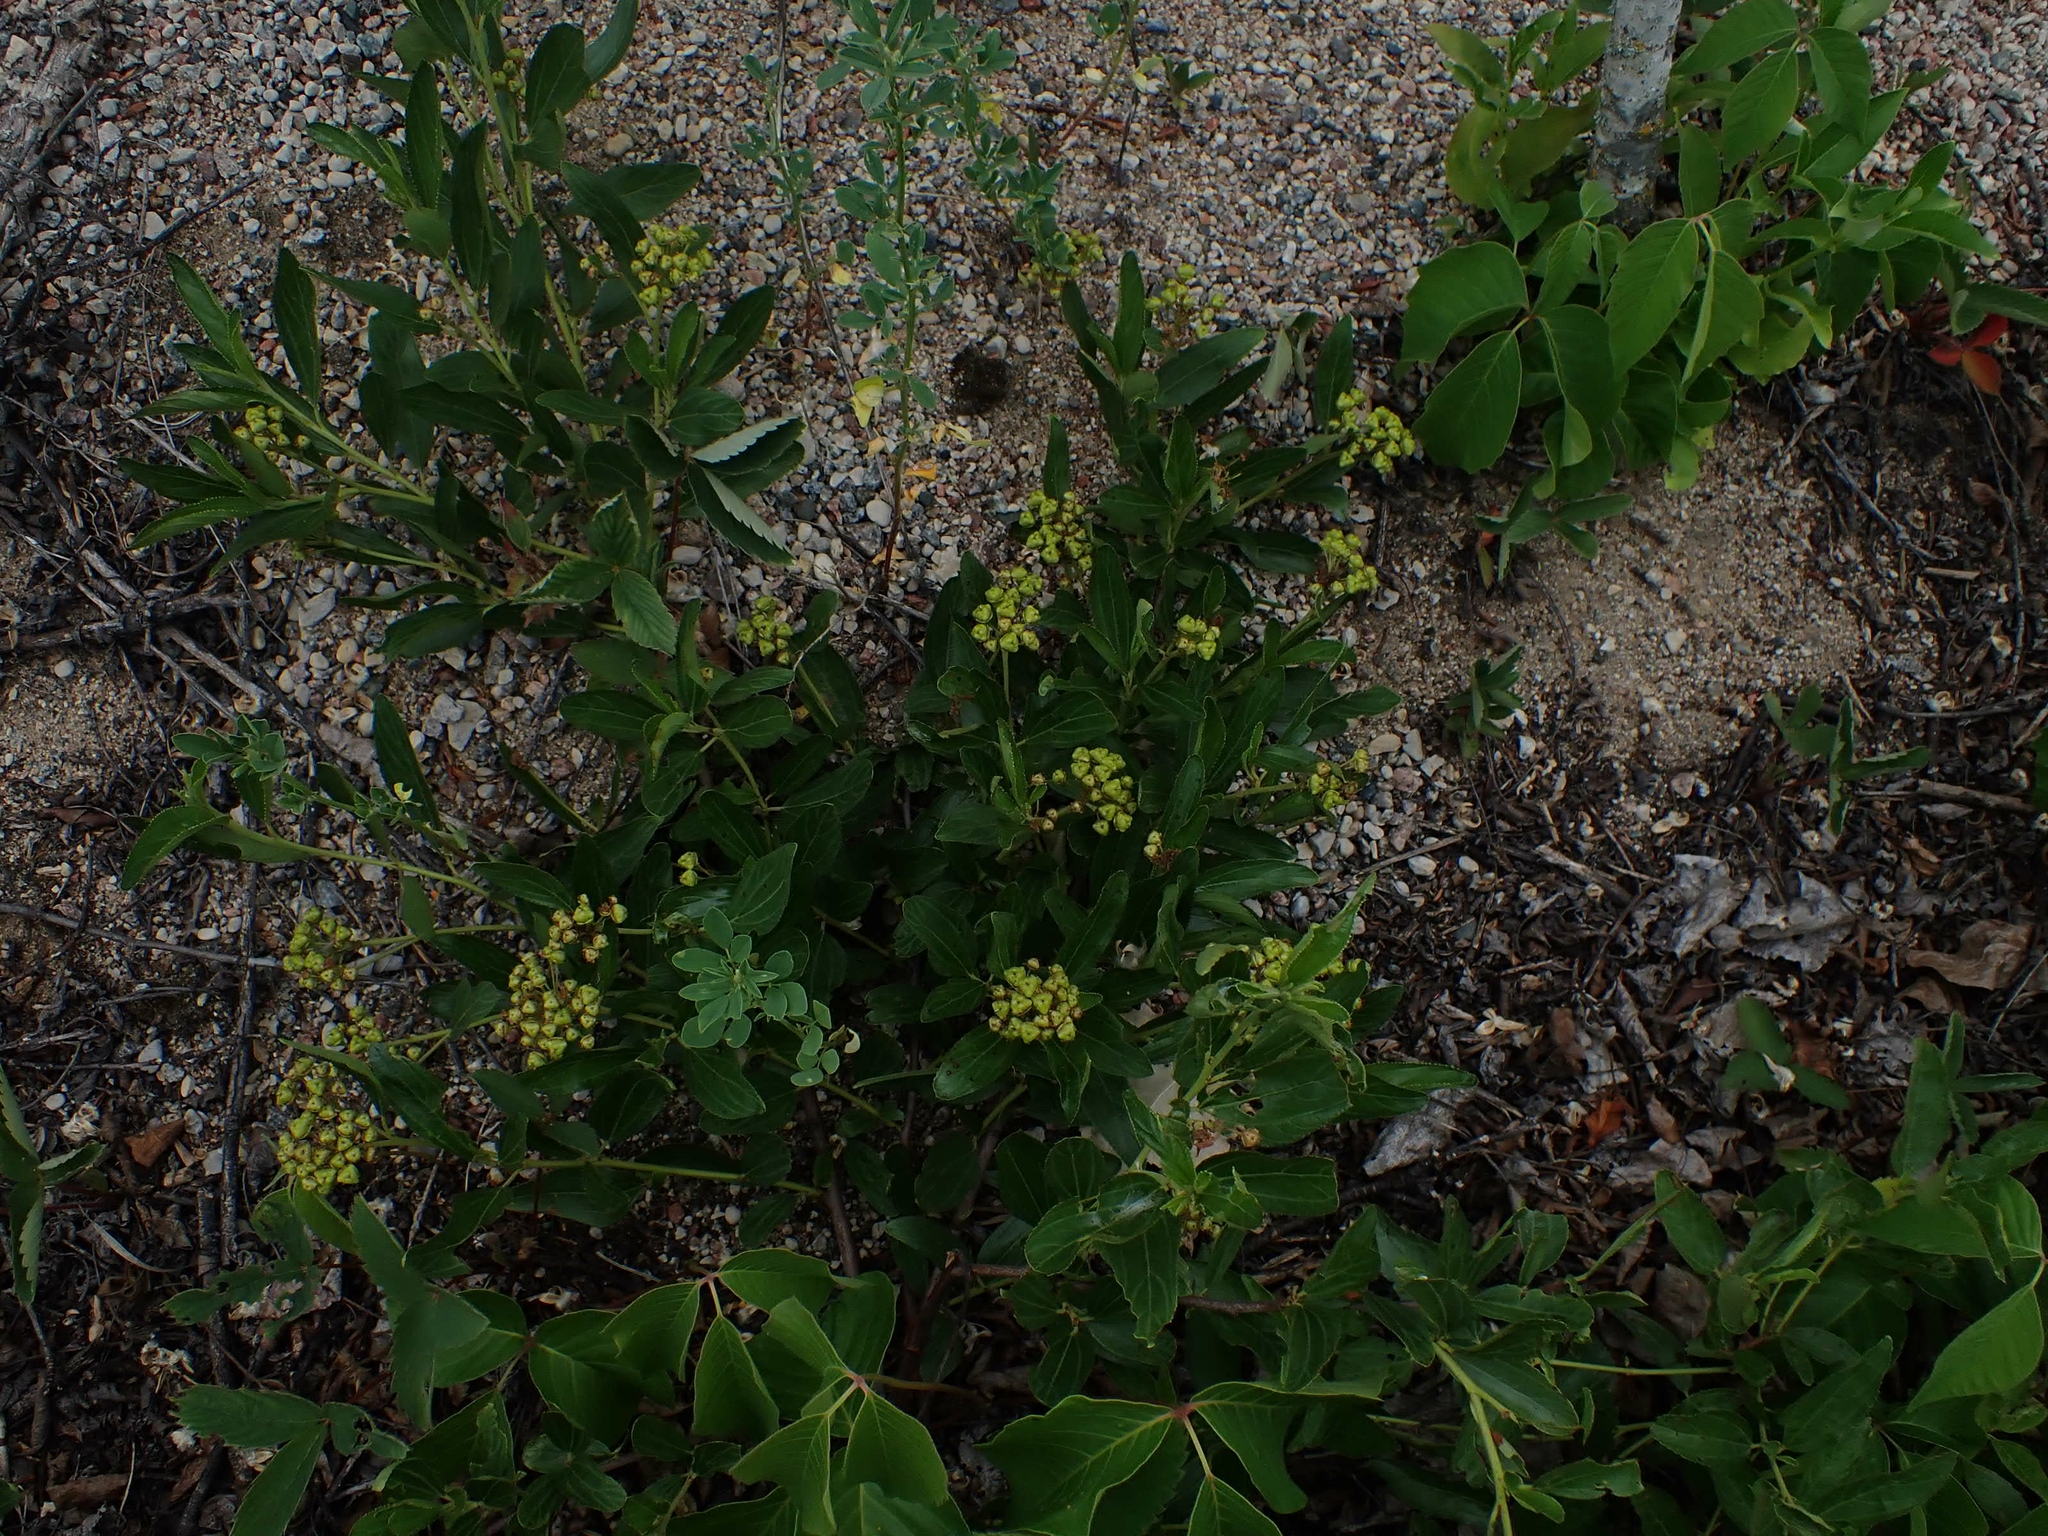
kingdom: Plantae
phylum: Tracheophyta
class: Magnoliopsida
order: Rosales
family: Rhamnaceae
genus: Ceanothus
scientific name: Ceanothus herbaceus
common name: Inland ceanothus
